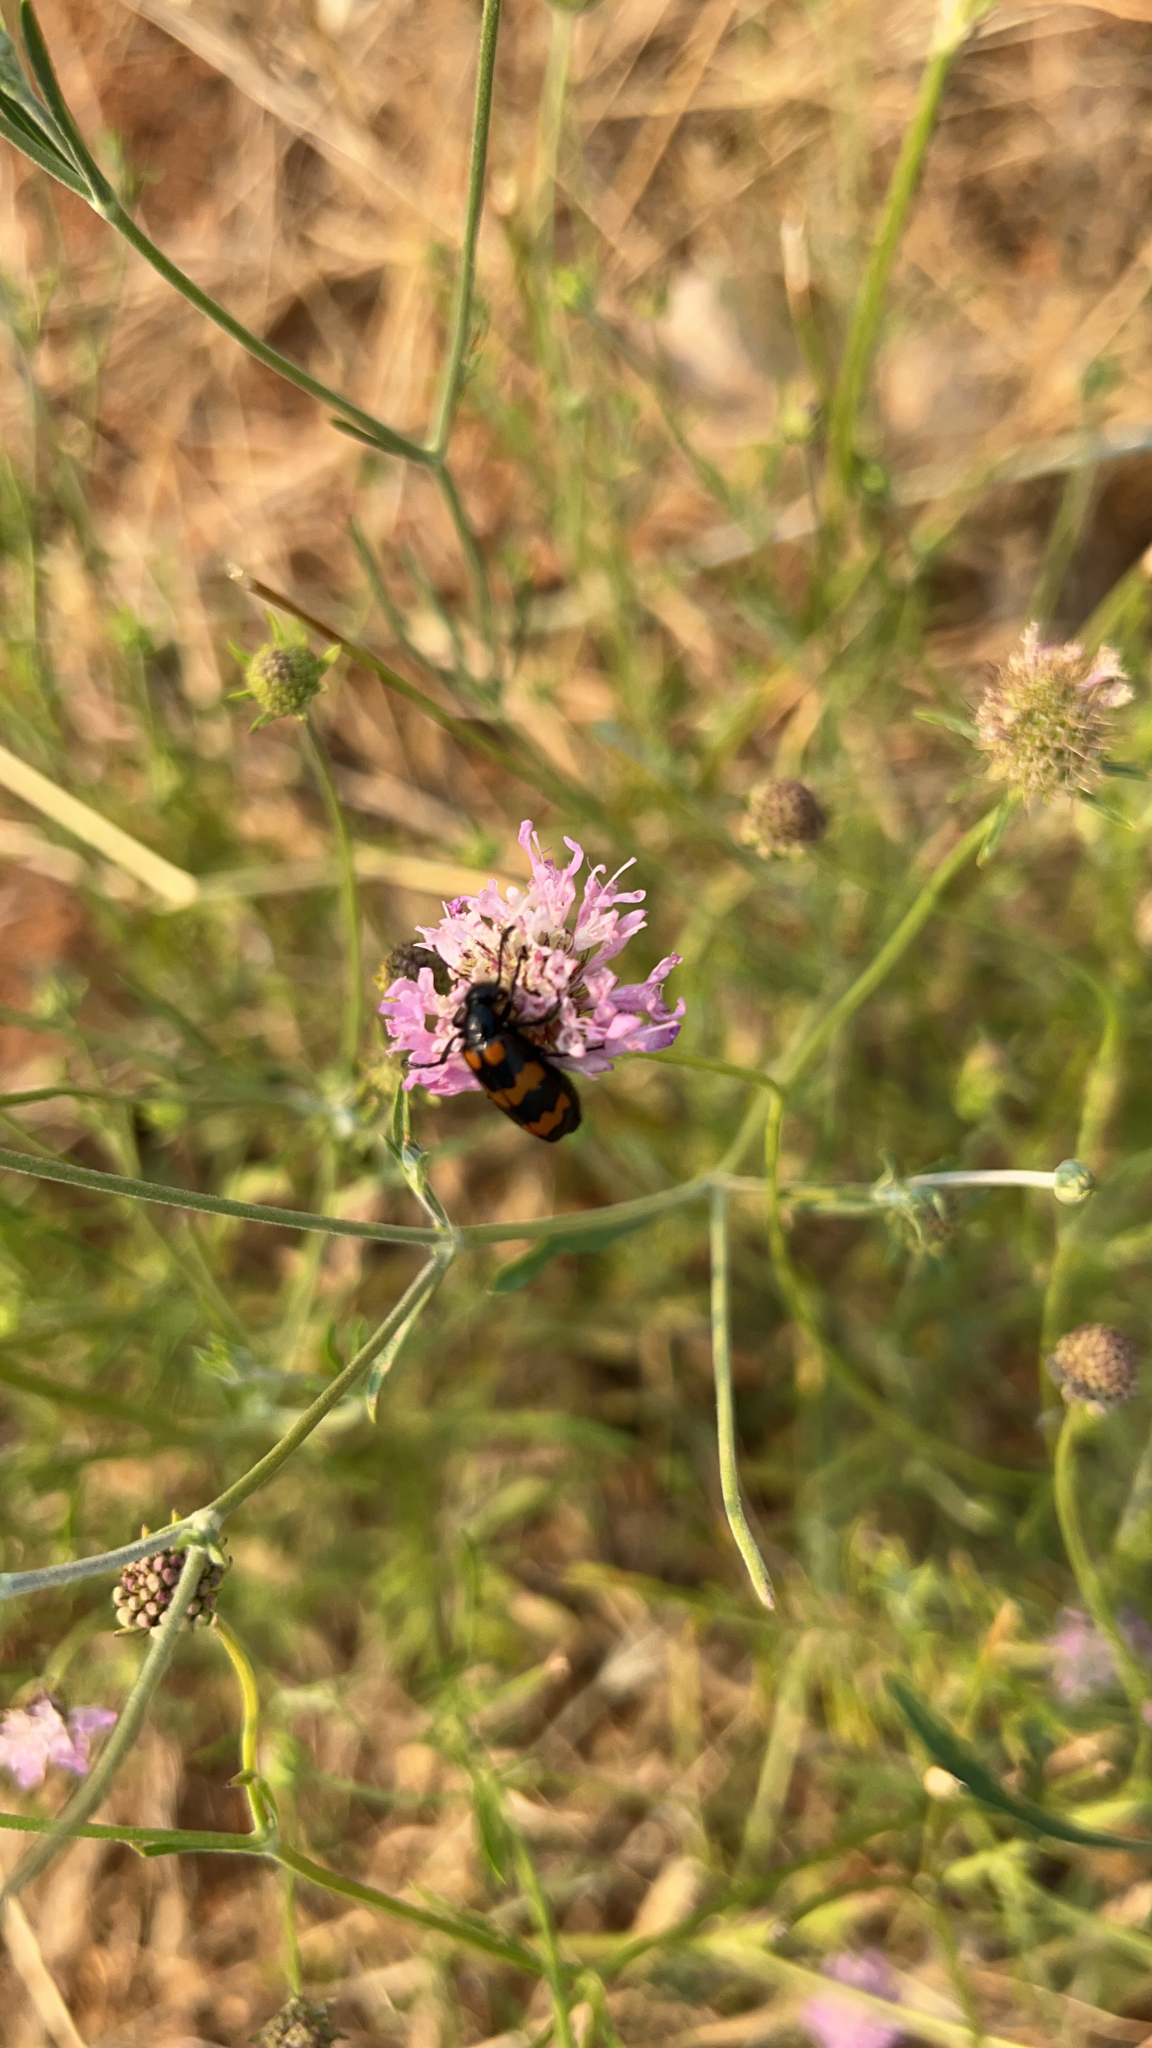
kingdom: Animalia
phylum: Arthropoda
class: Insecta
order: Coleoptera
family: Meloidae
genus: Mylabris
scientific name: Mylabris variabilis
